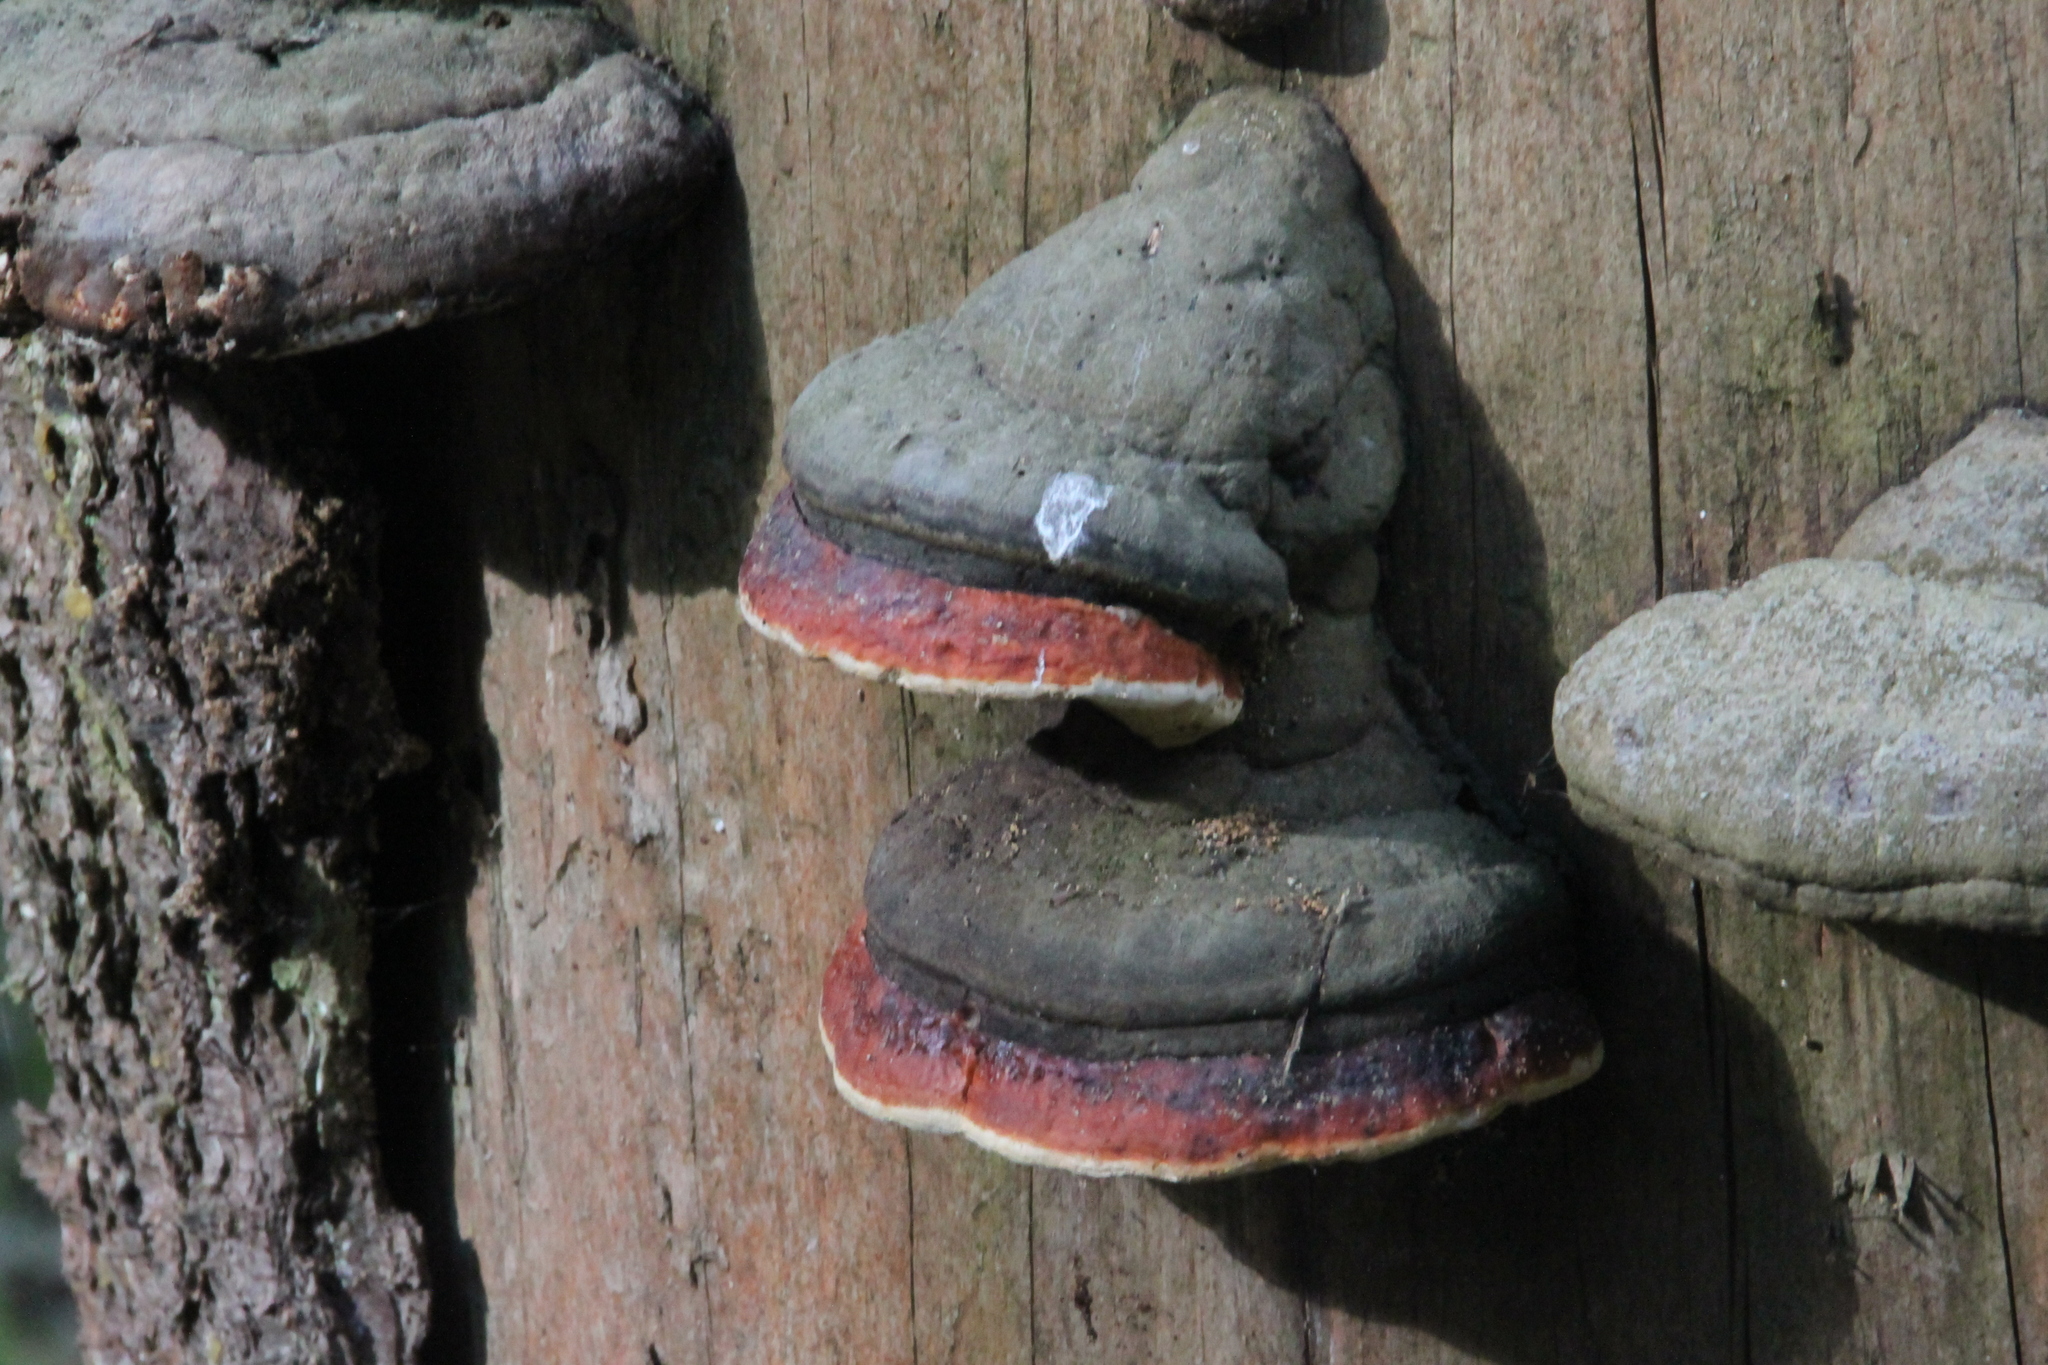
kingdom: Fungi
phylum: Basidiomycota
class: Agaricomycetes
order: Polyporales
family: Fomitopsidaceae
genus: Fomitopsis
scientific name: Fomitopsis pinicola
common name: Red-belted bracket
